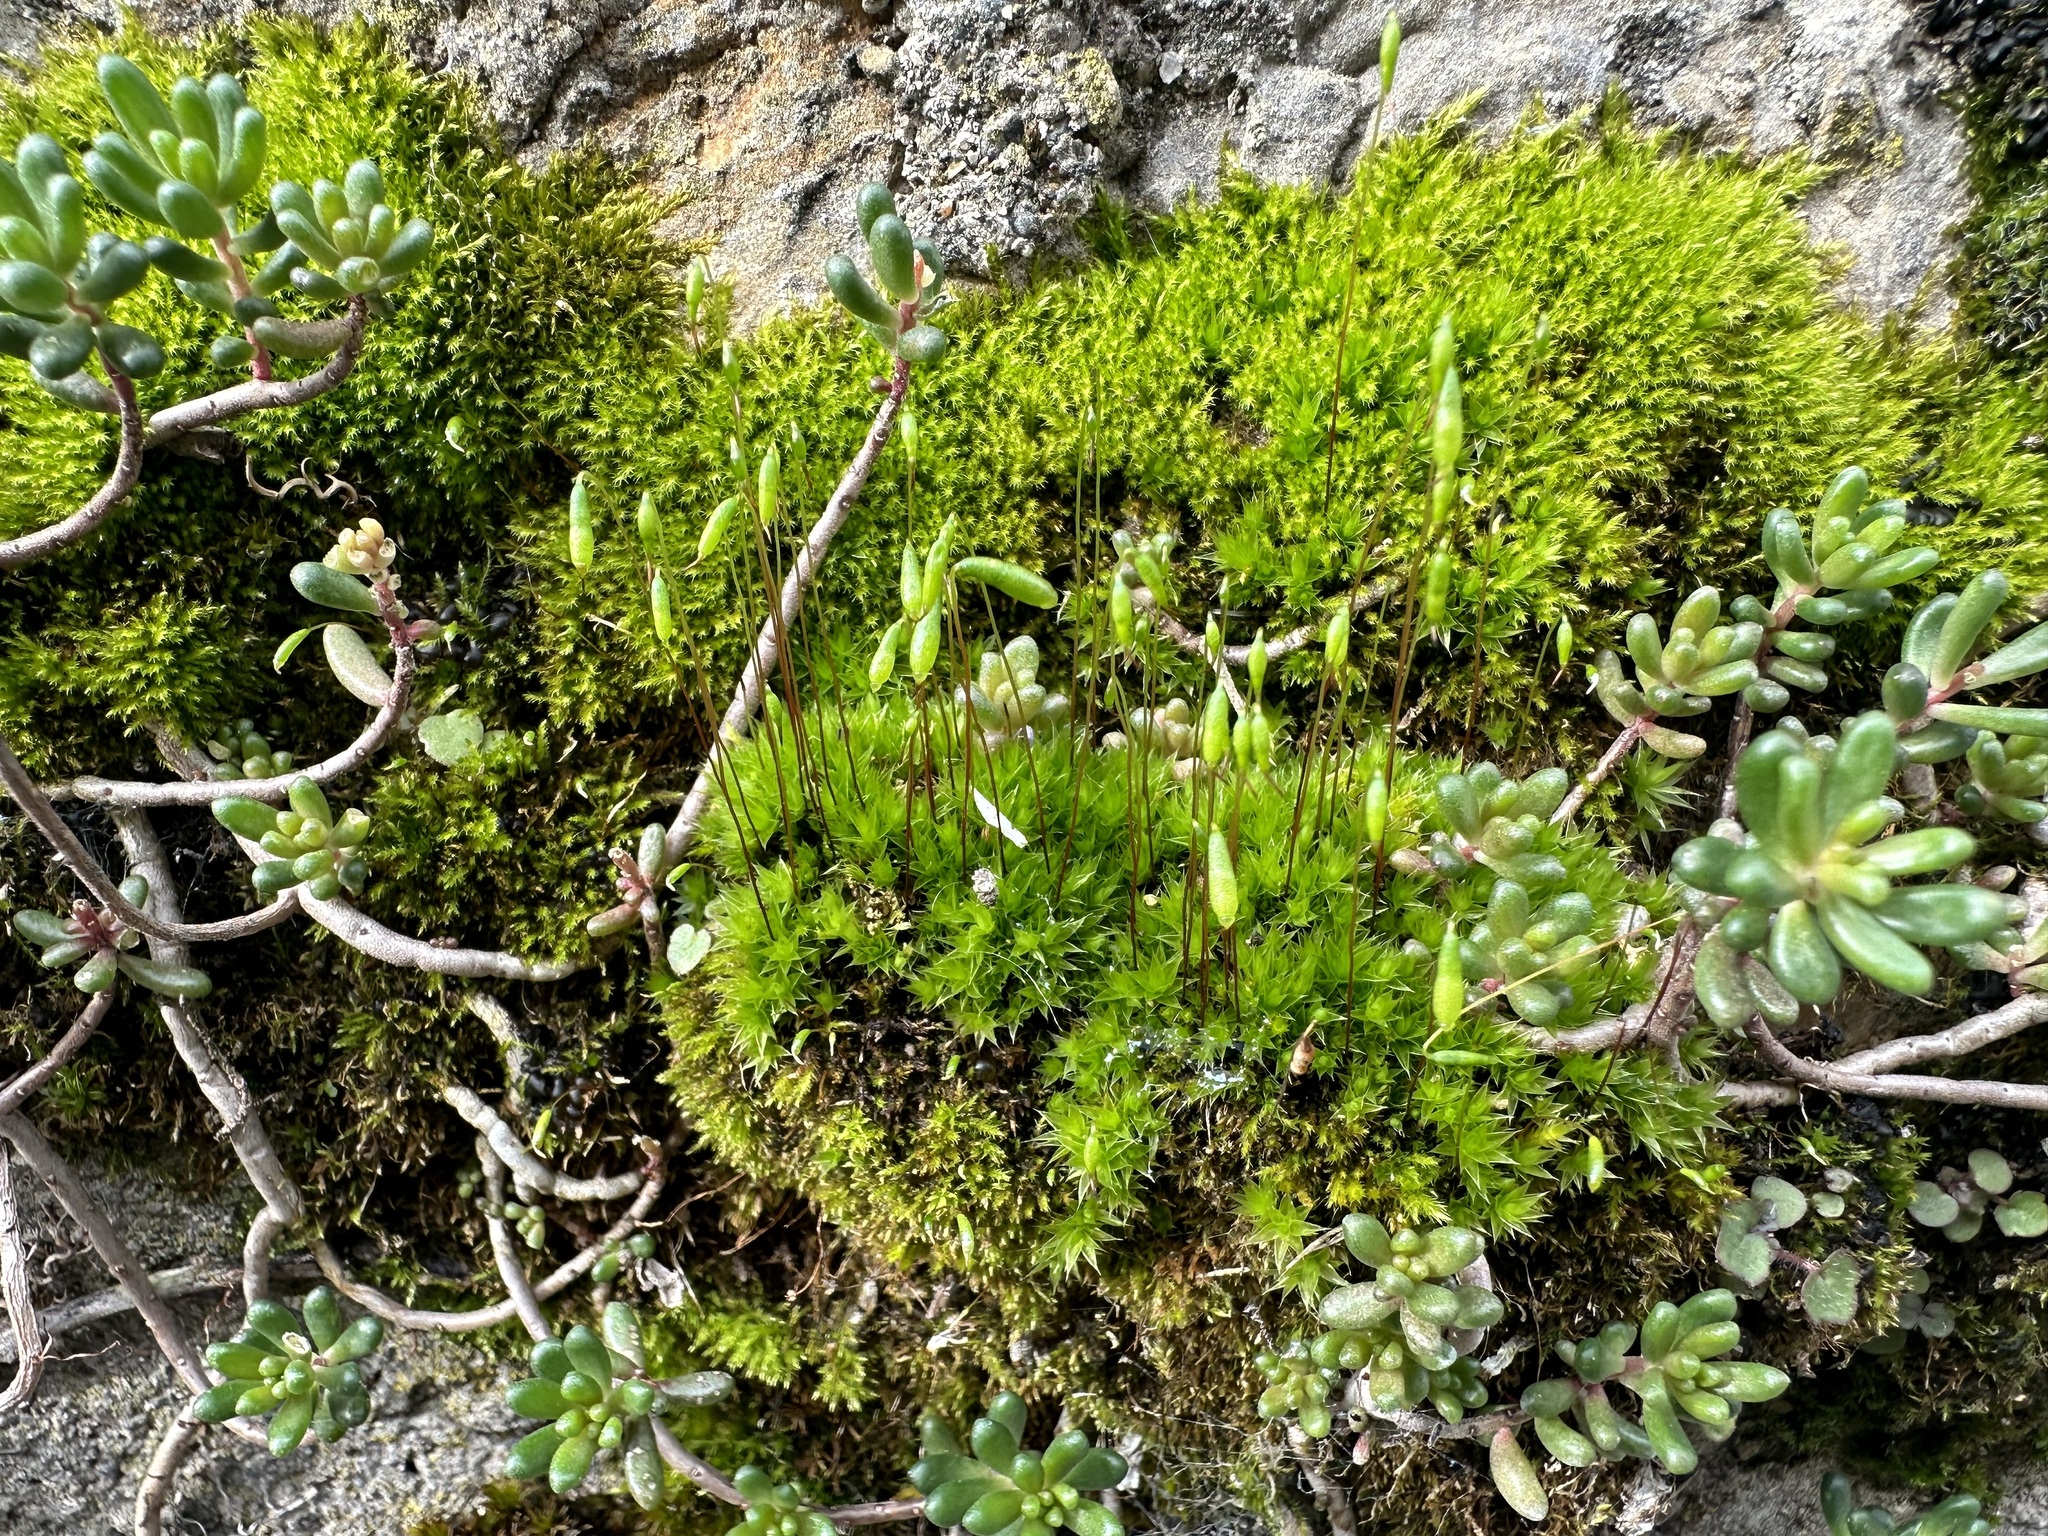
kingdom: Plantae
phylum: Bryophyta
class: Bryopsida
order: Bryales
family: Bryaceae
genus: Rosulabryum
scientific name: Rosulabryum capillare
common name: Capillary thread-moss
